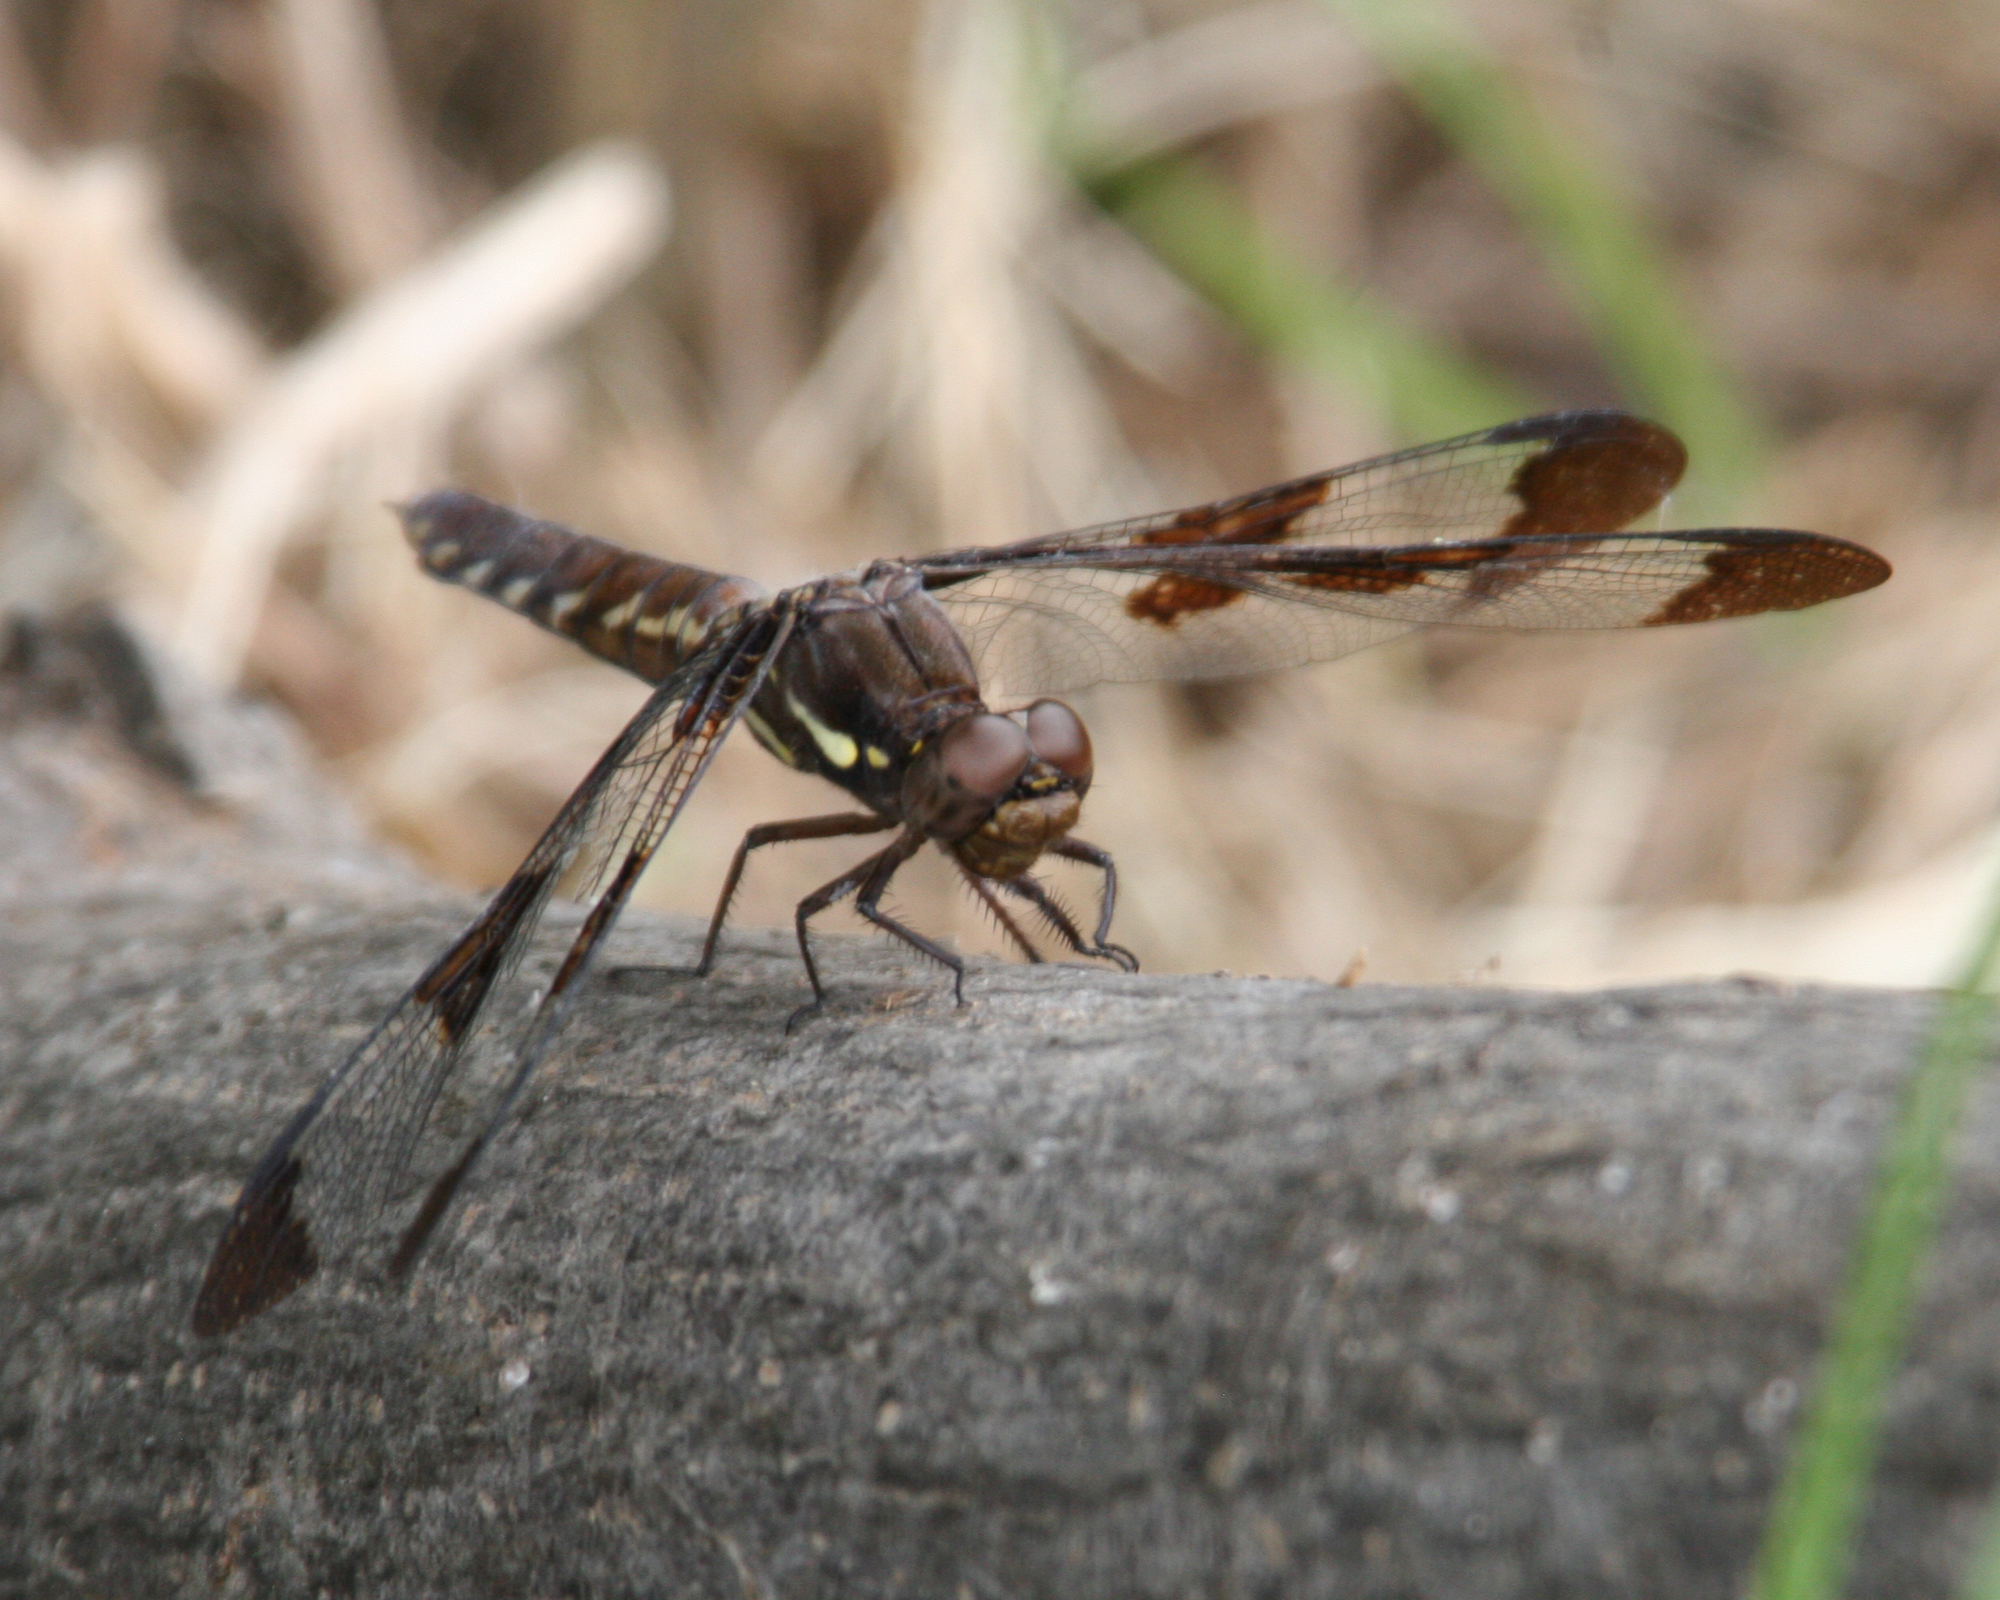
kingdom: Animalia
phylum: Arthropoda
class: Insecta
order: Odonata
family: Libellulidae
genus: Plathemis
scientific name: Plathemis lydia
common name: Common whitetail
